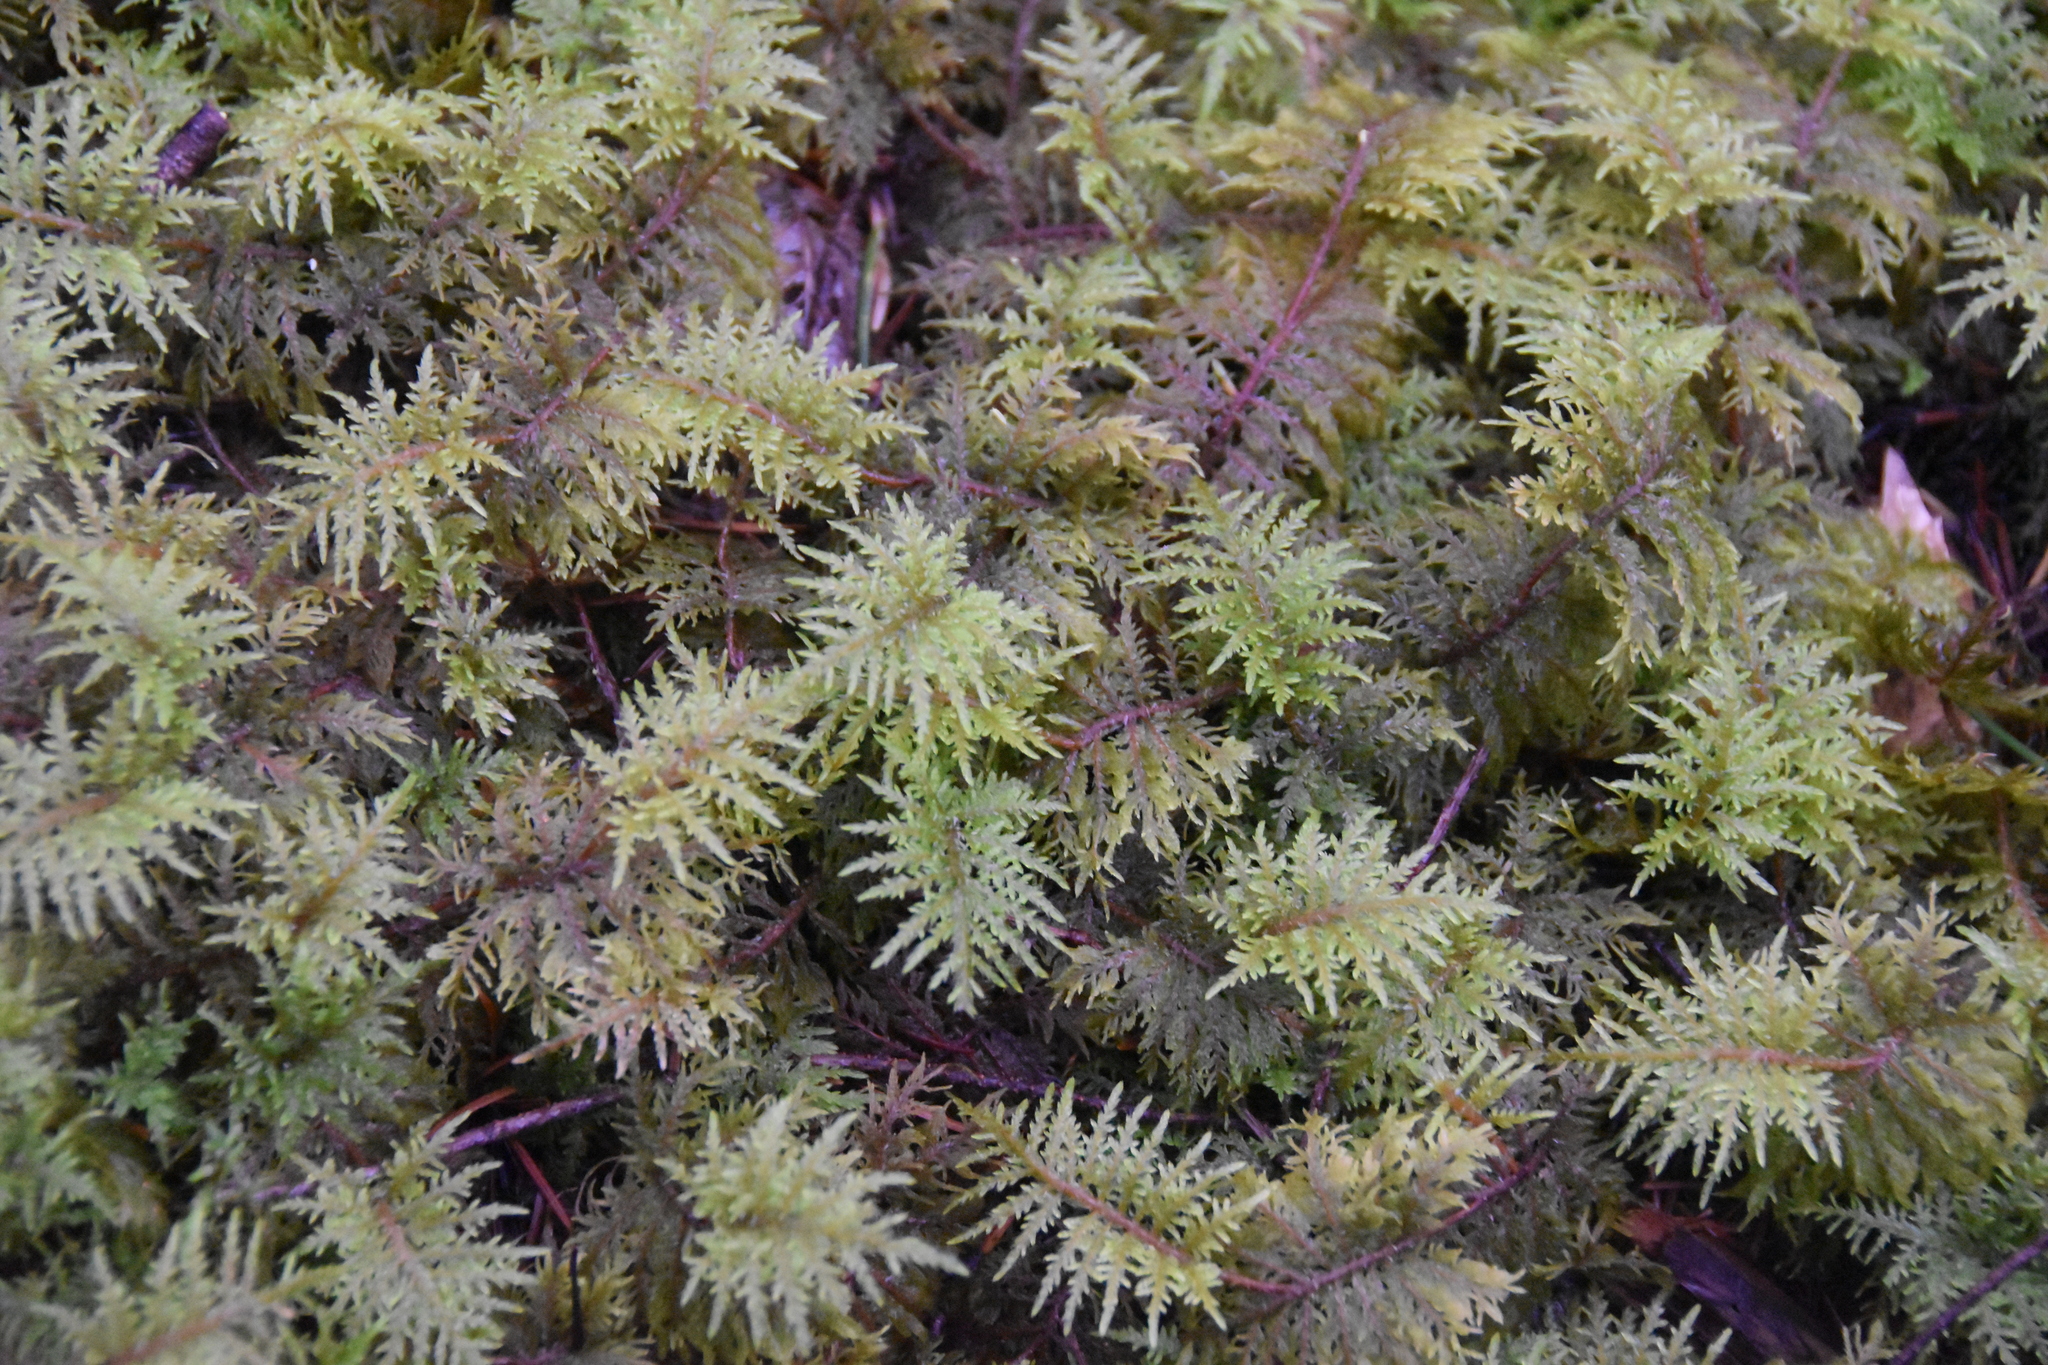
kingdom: Plantae
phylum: Bryophyta
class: Bryopsida
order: Hypnales
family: Hylocomiaceae
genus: Hylocomium
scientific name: Hylocomium splendens
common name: Stairstep moss
